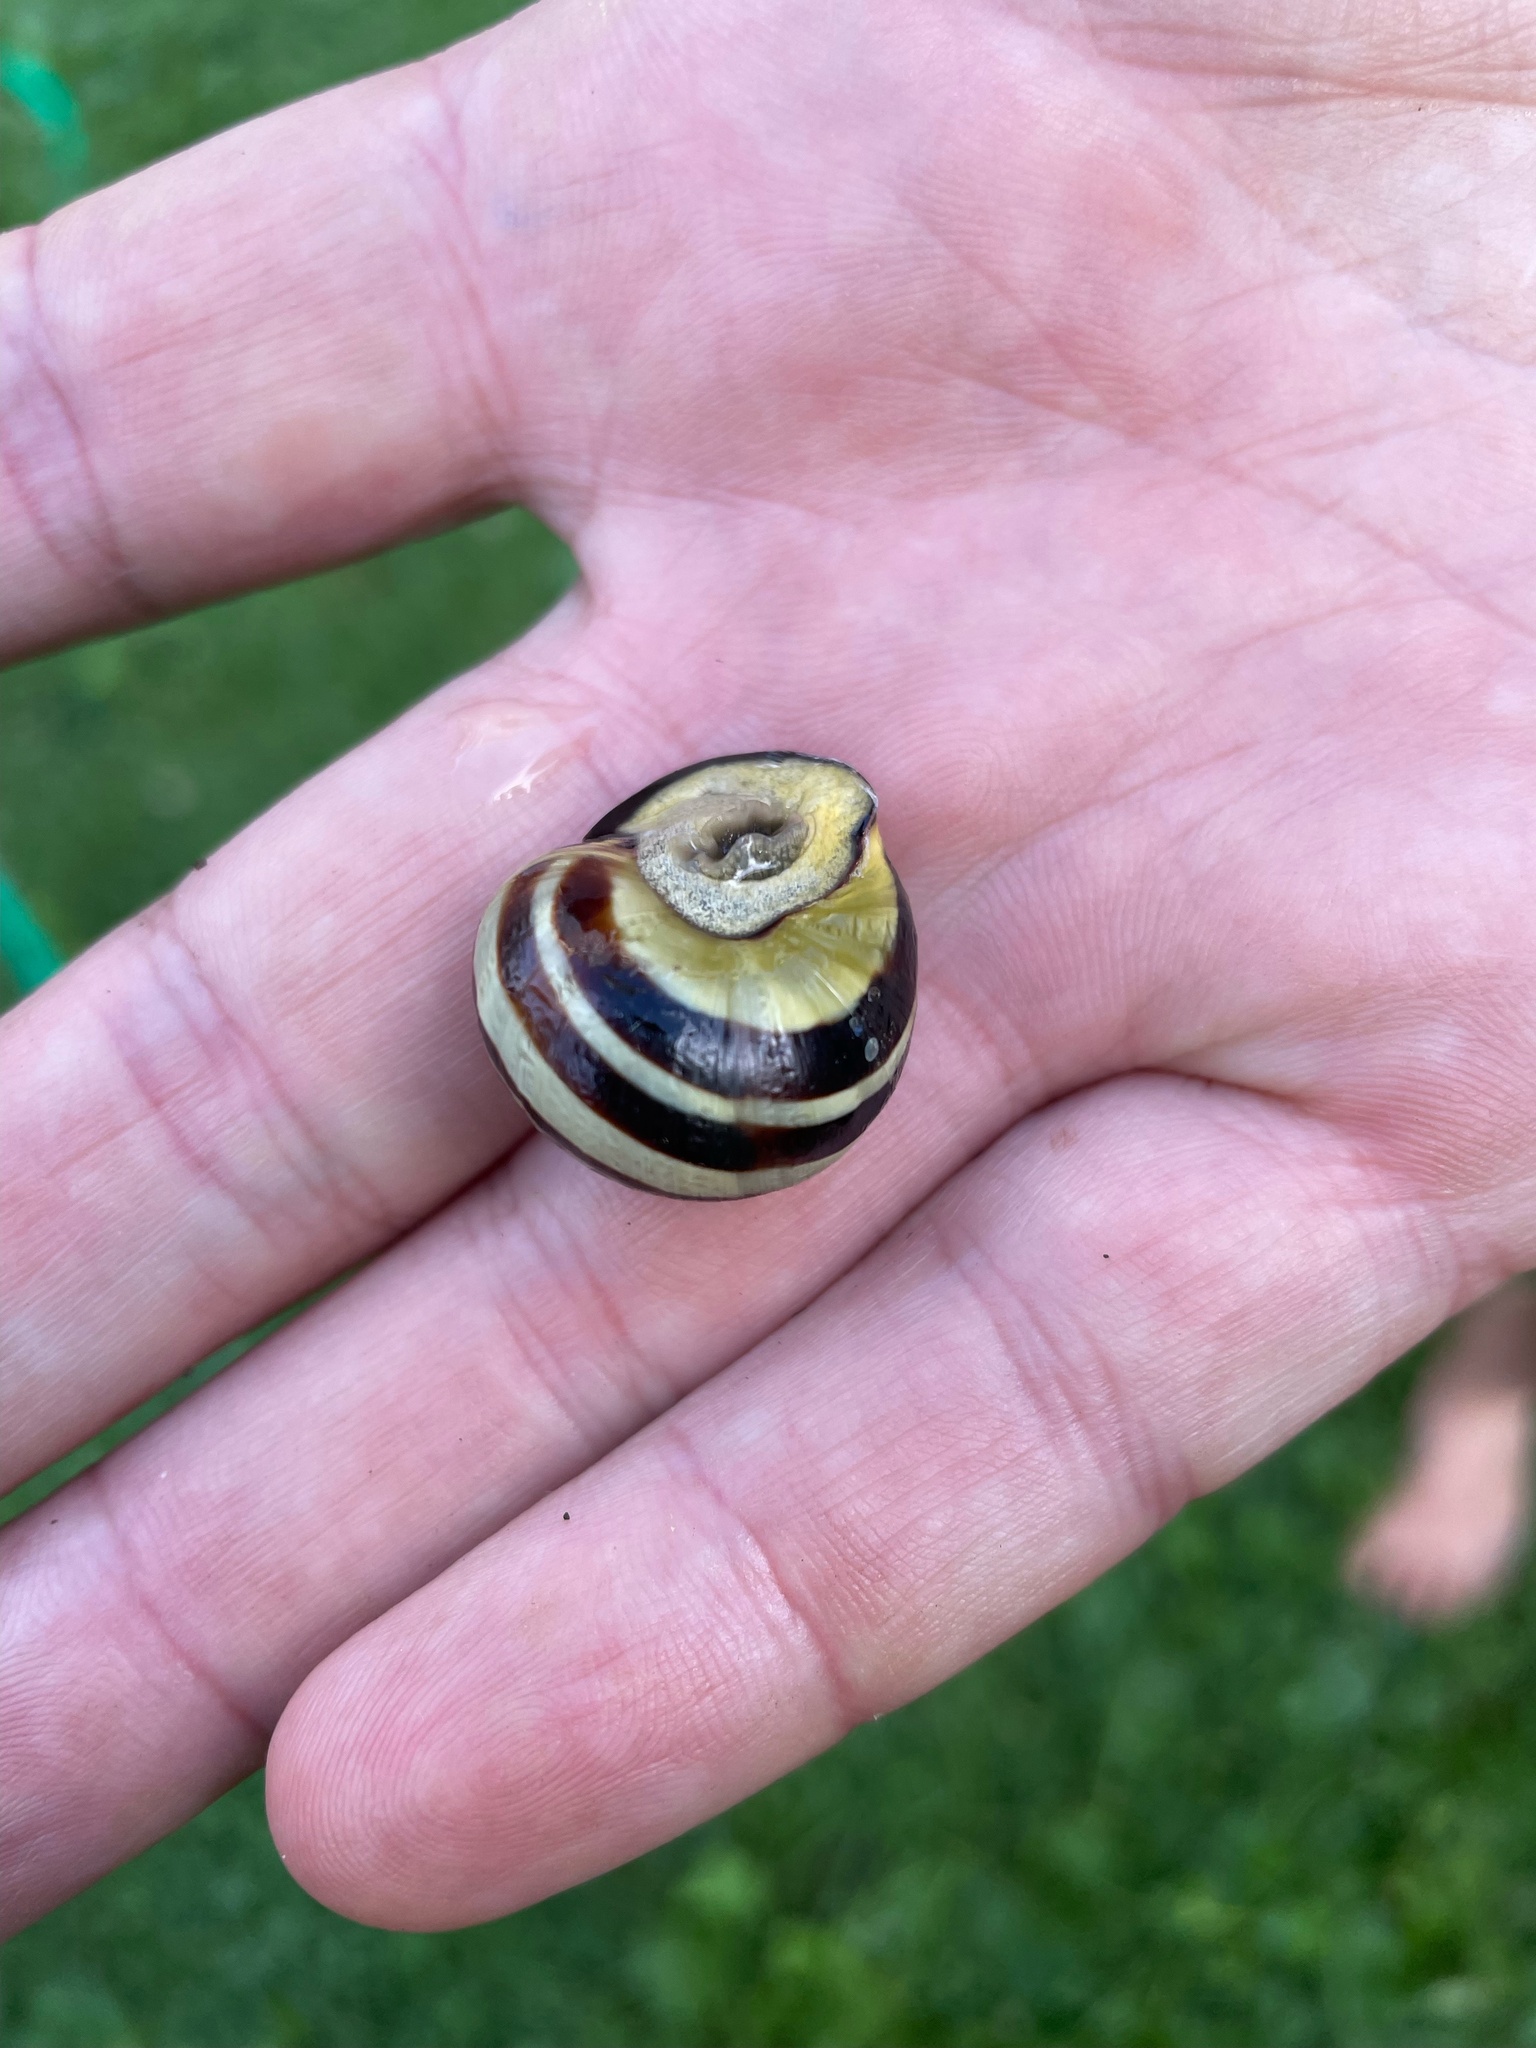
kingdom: Animalia
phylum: Mollusca
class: Gastropoda
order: Stylommatophora
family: Helicidae
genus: Cepaea
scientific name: Cepaea nemoralis
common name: Grovesnail
